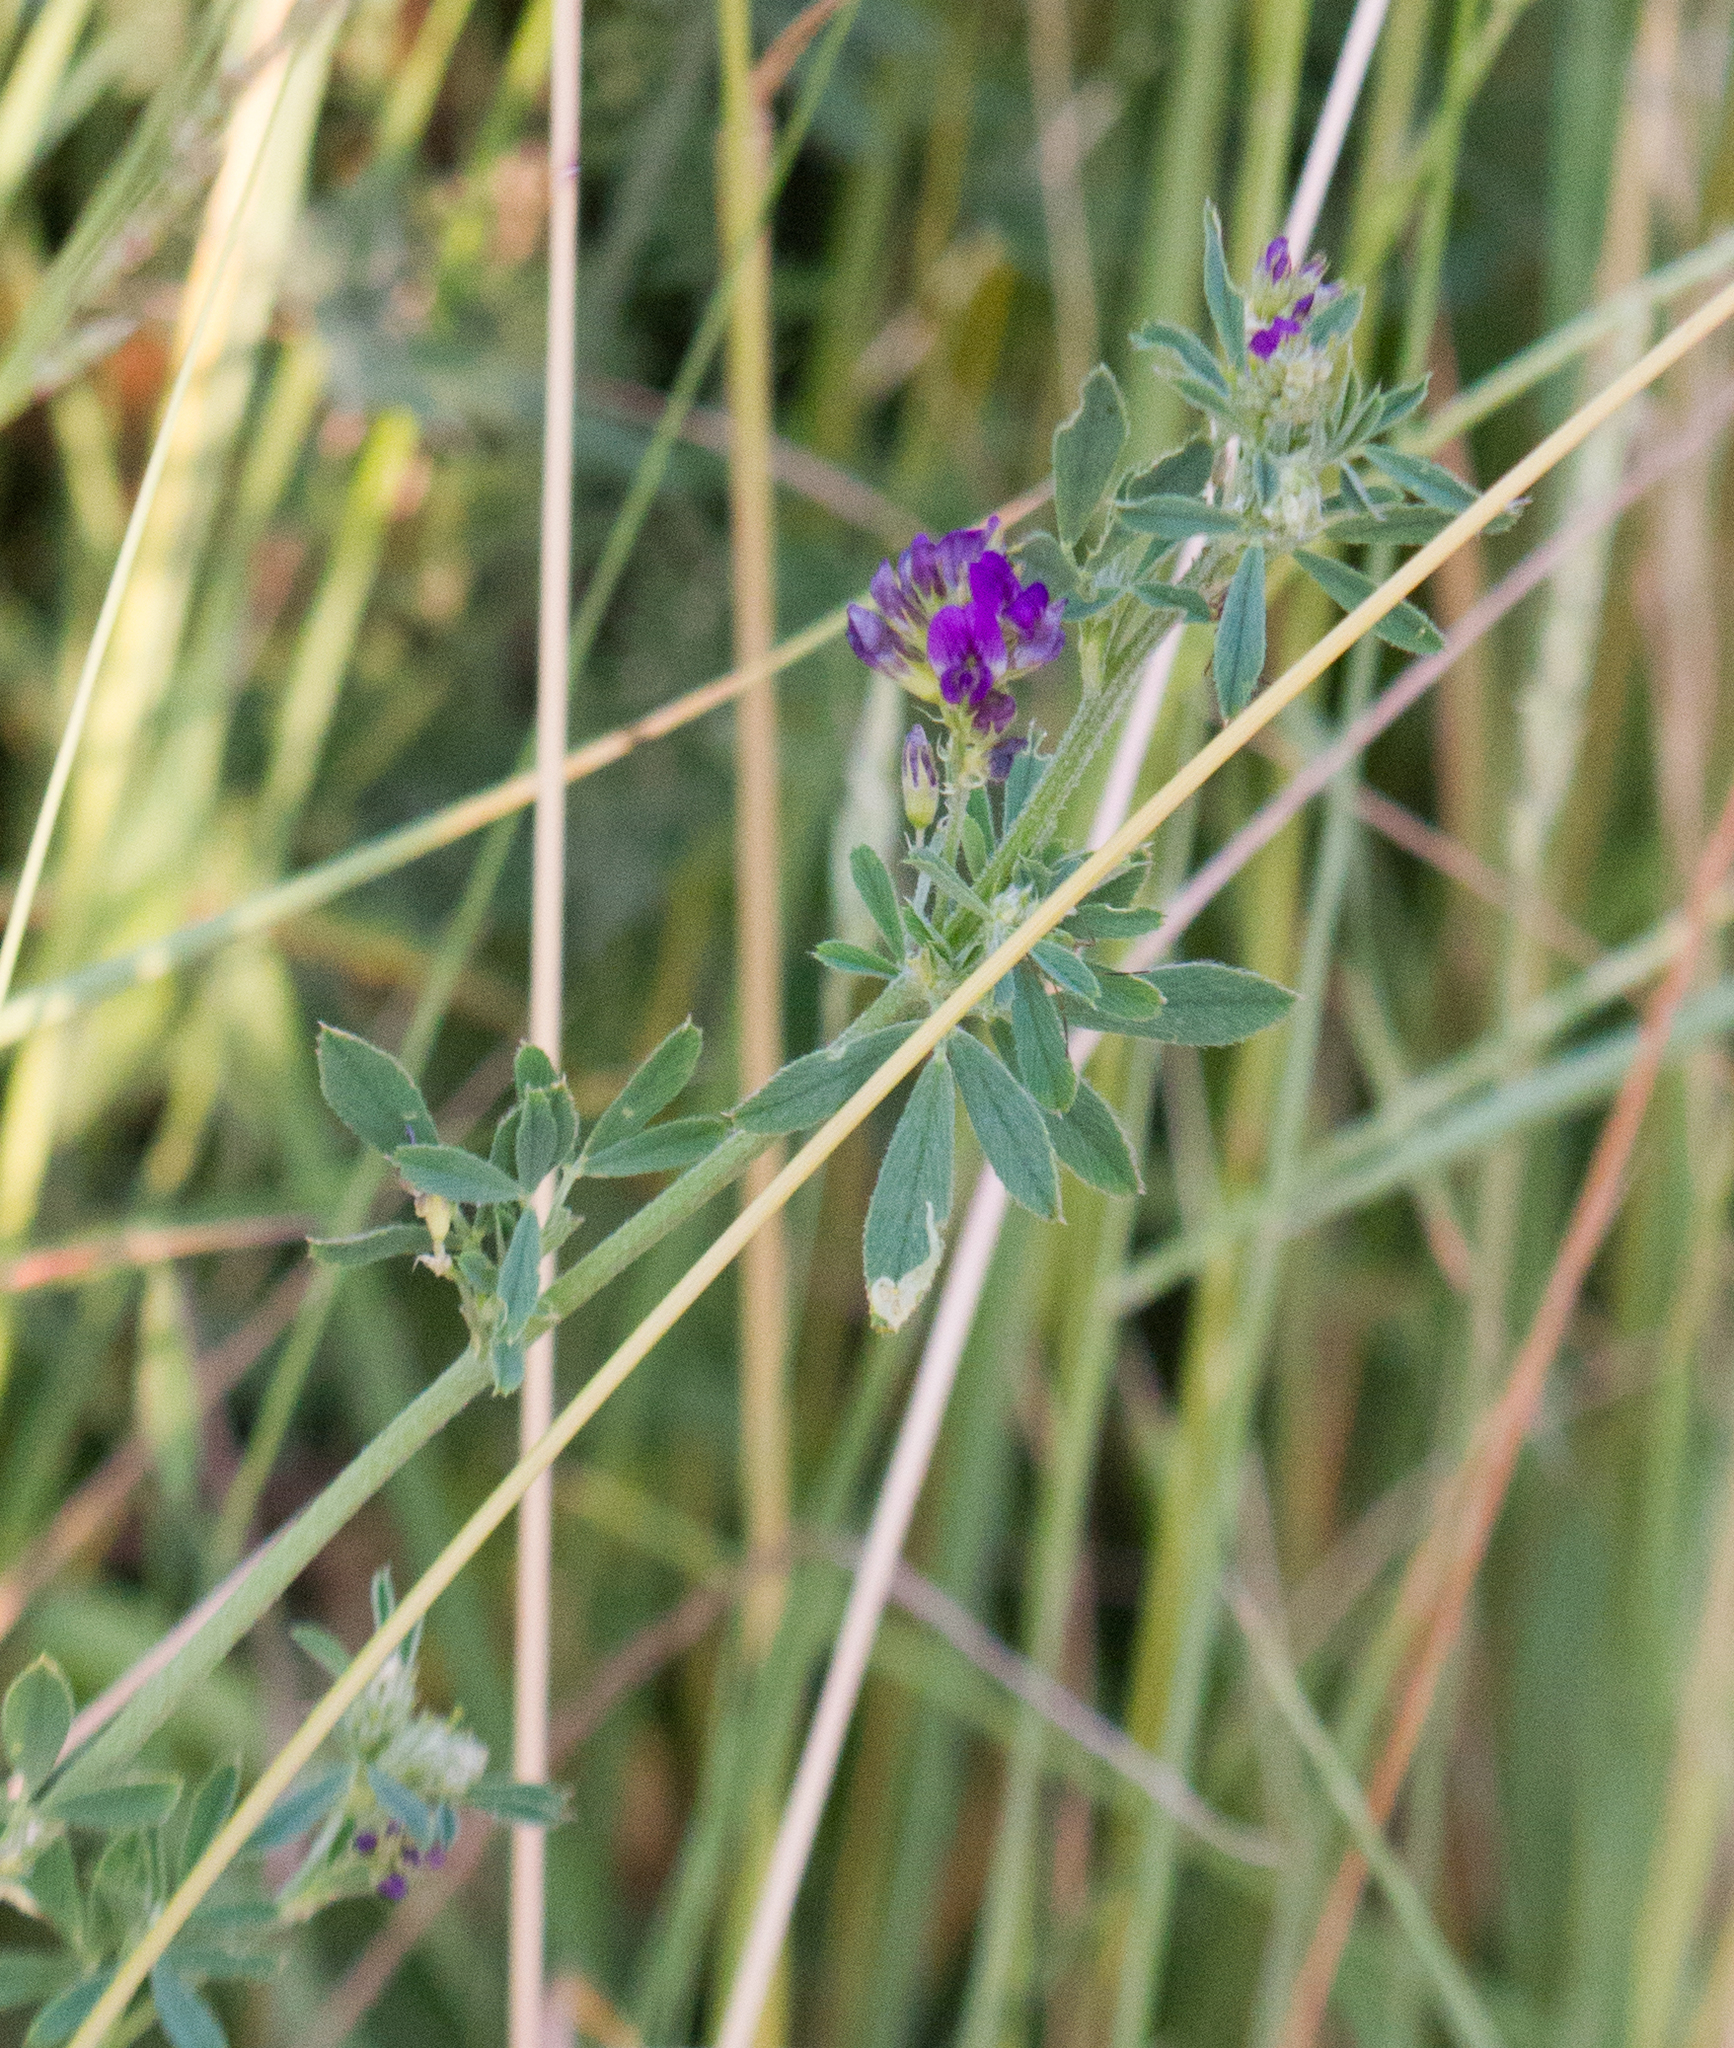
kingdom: Plantae
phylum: Tracheophyta
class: Magnoliopsida
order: Fabales
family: Fabaceae
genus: Medicago
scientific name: Medicago sativa
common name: Alfalfa
